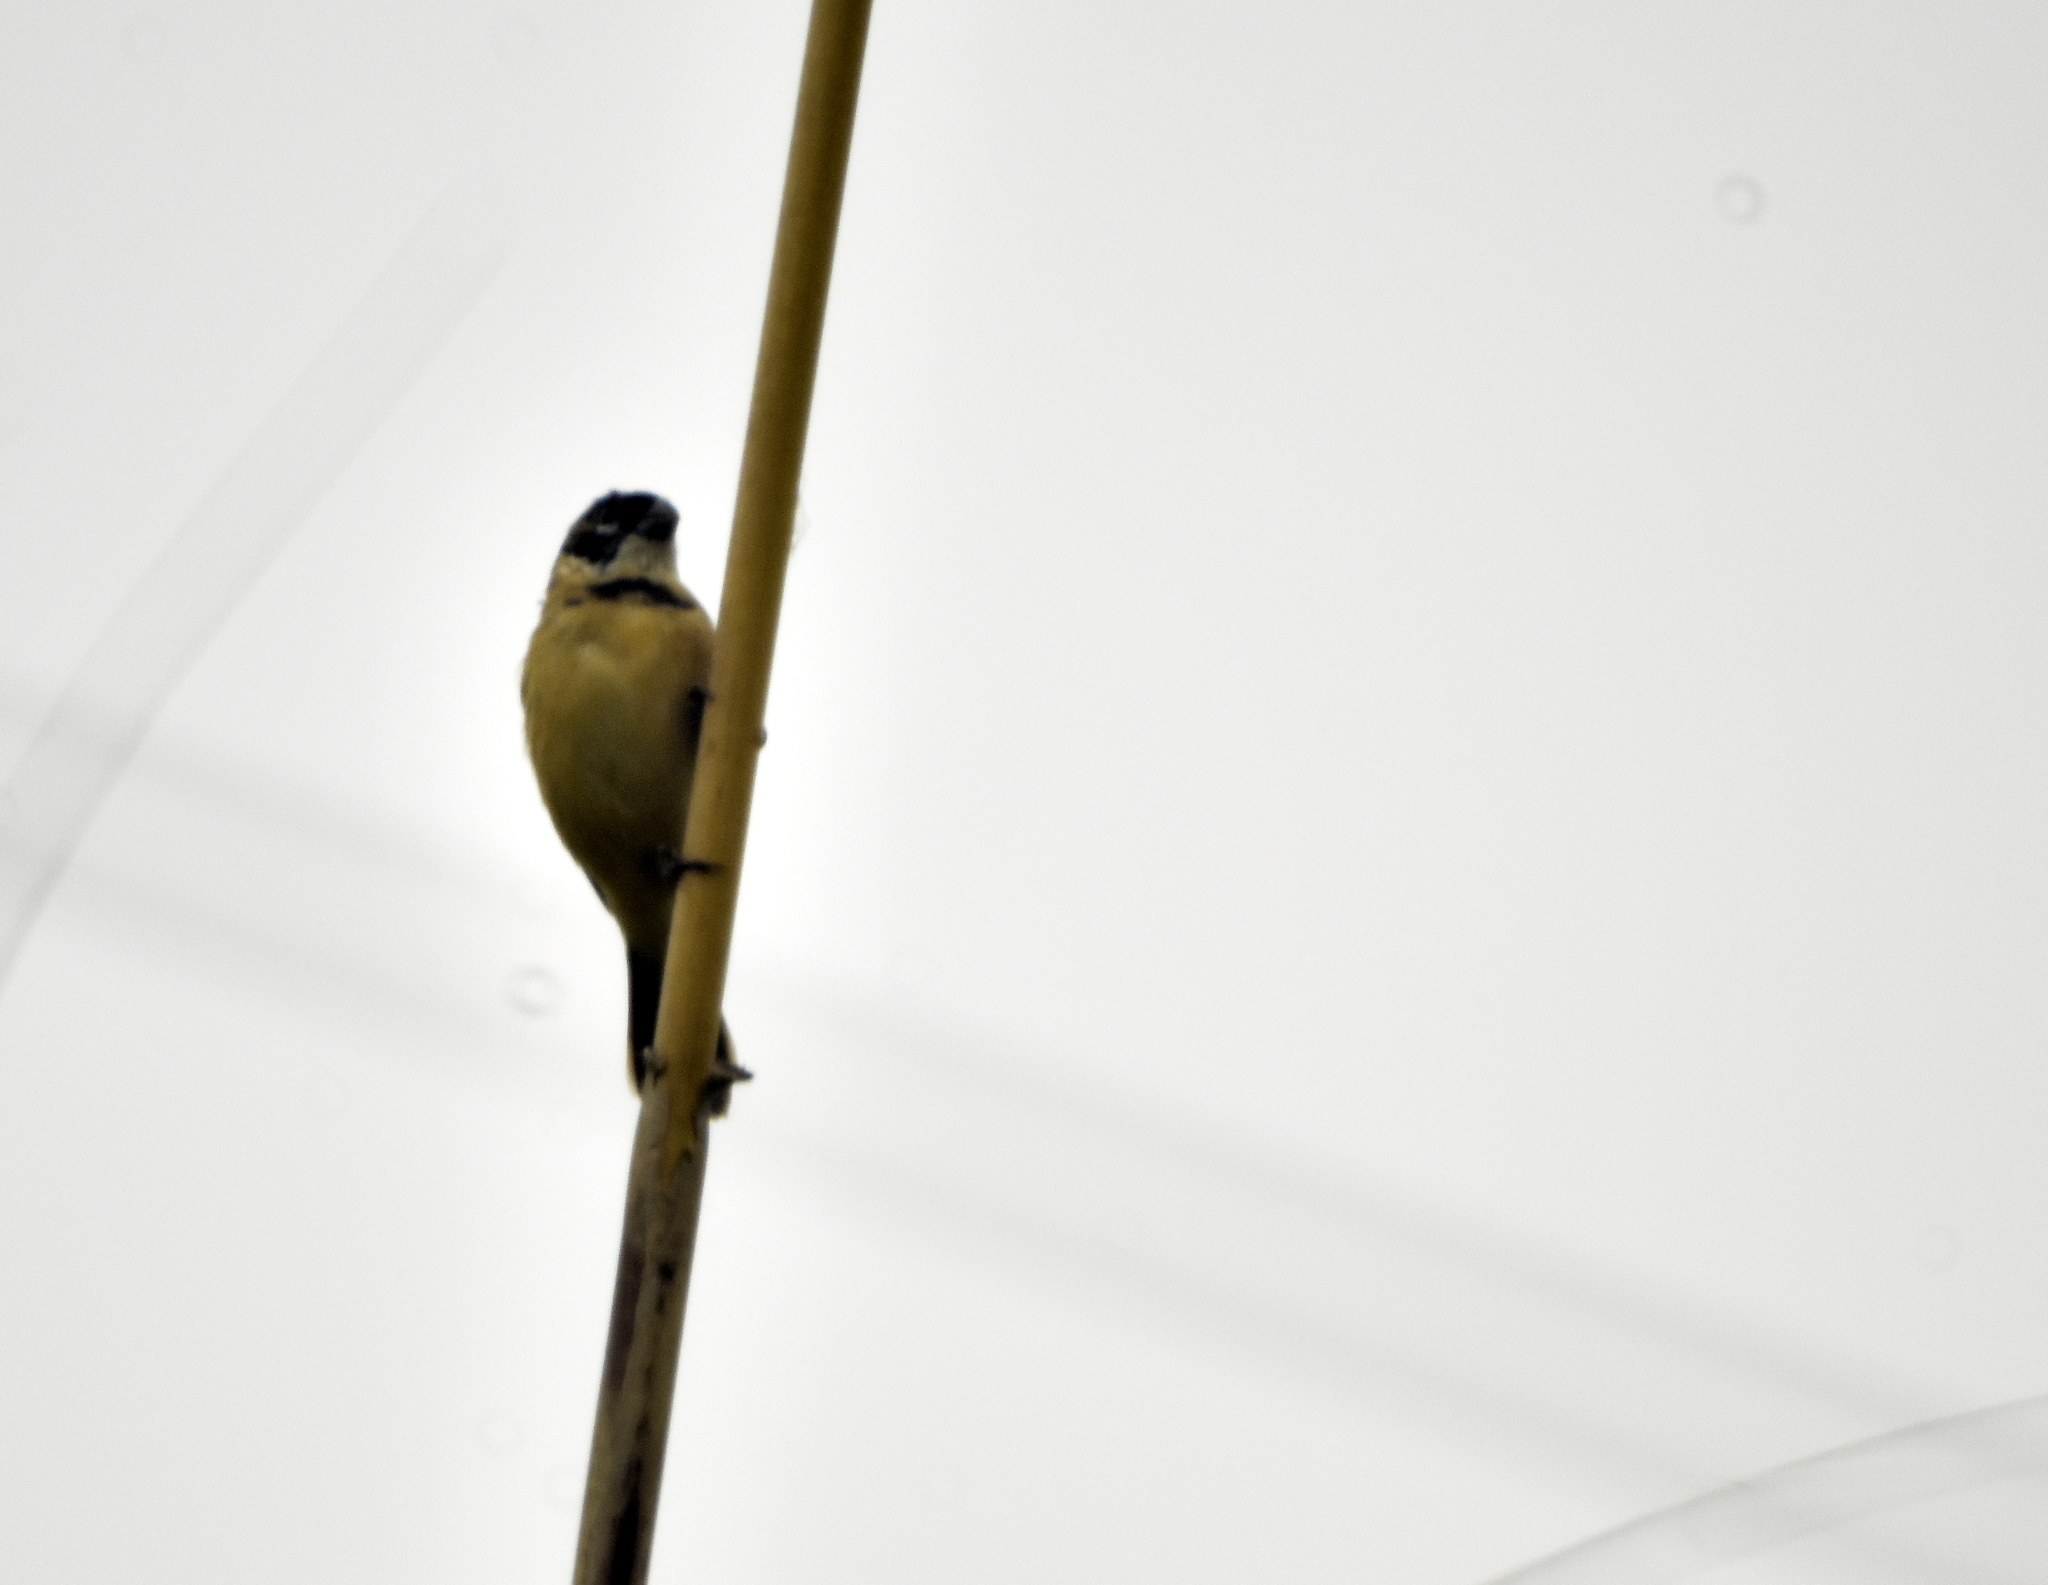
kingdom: Animalia
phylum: Chordata
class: Aves
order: Passeriformes
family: Thraupidae
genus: Sporophila
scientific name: Sporophila morelleti
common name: Morelet's seedeater
